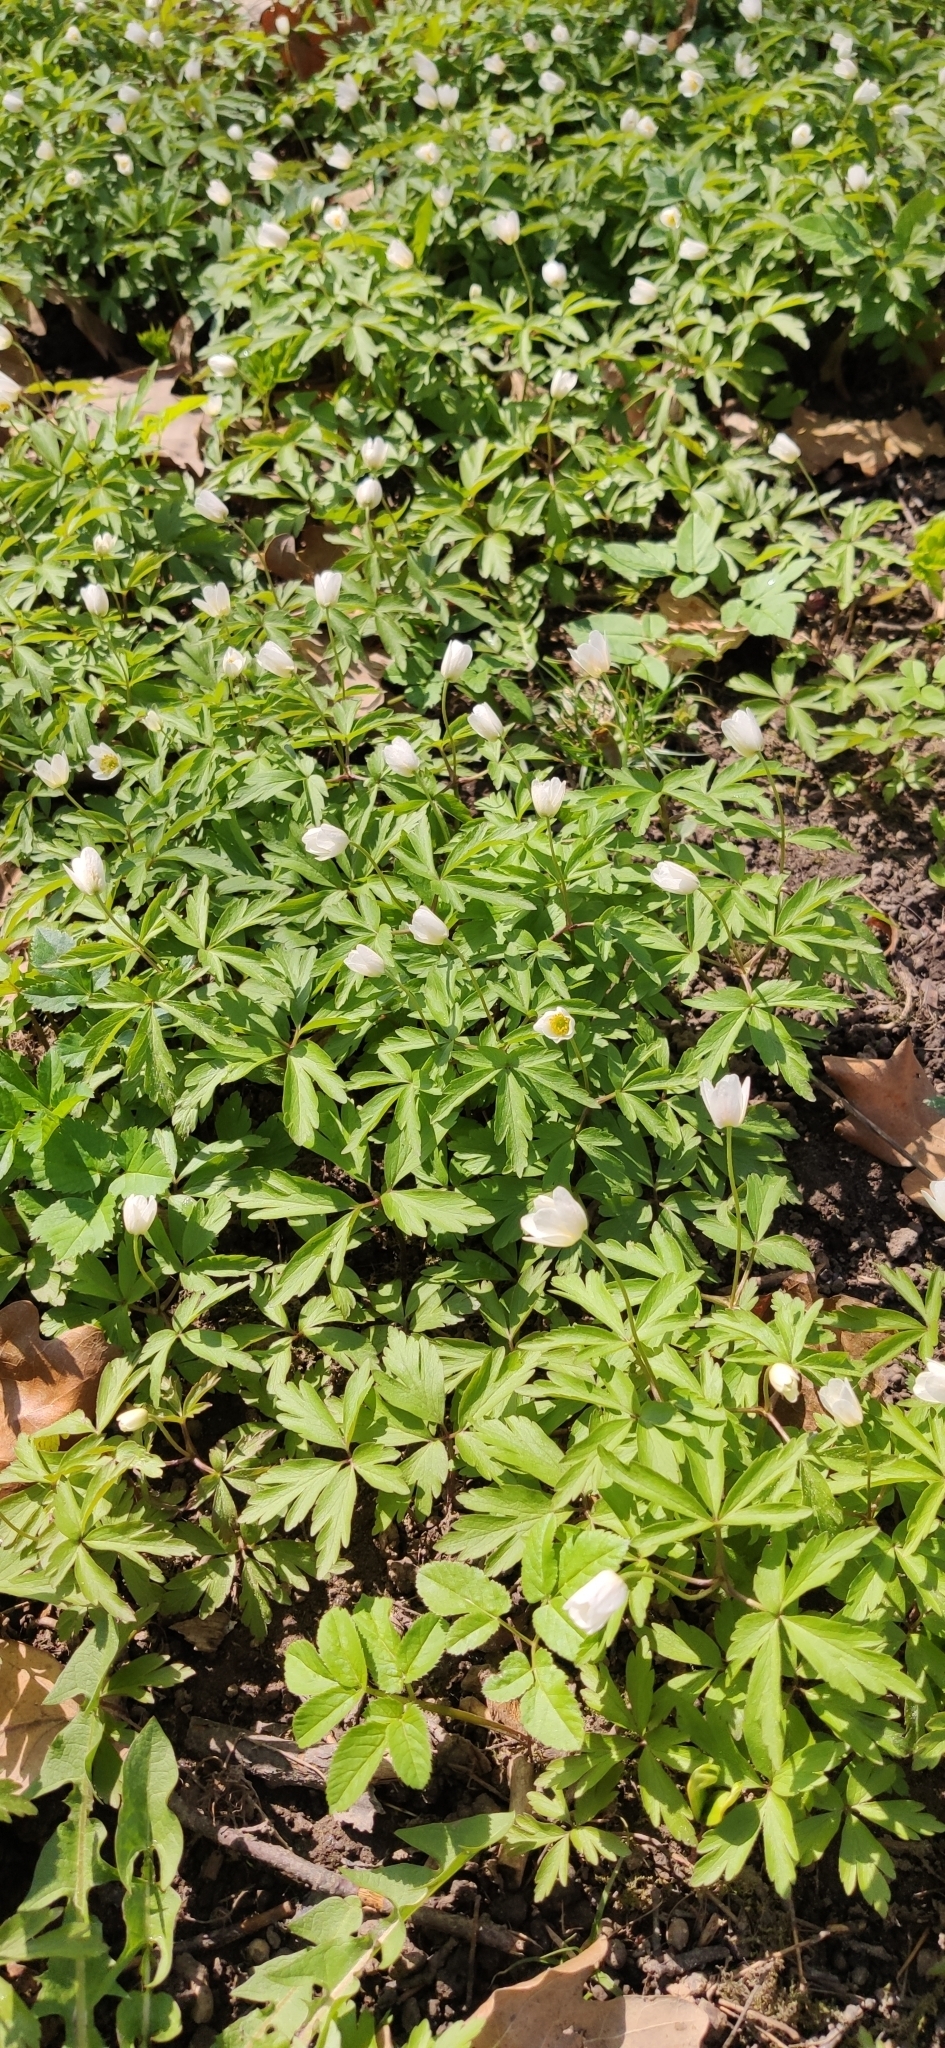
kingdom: Plantae
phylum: Tracheophyta
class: Magnoliopsida
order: Ranunculales
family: Ranunculaceae
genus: Anemone
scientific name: Anemone nemorosa
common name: Wood anemone
